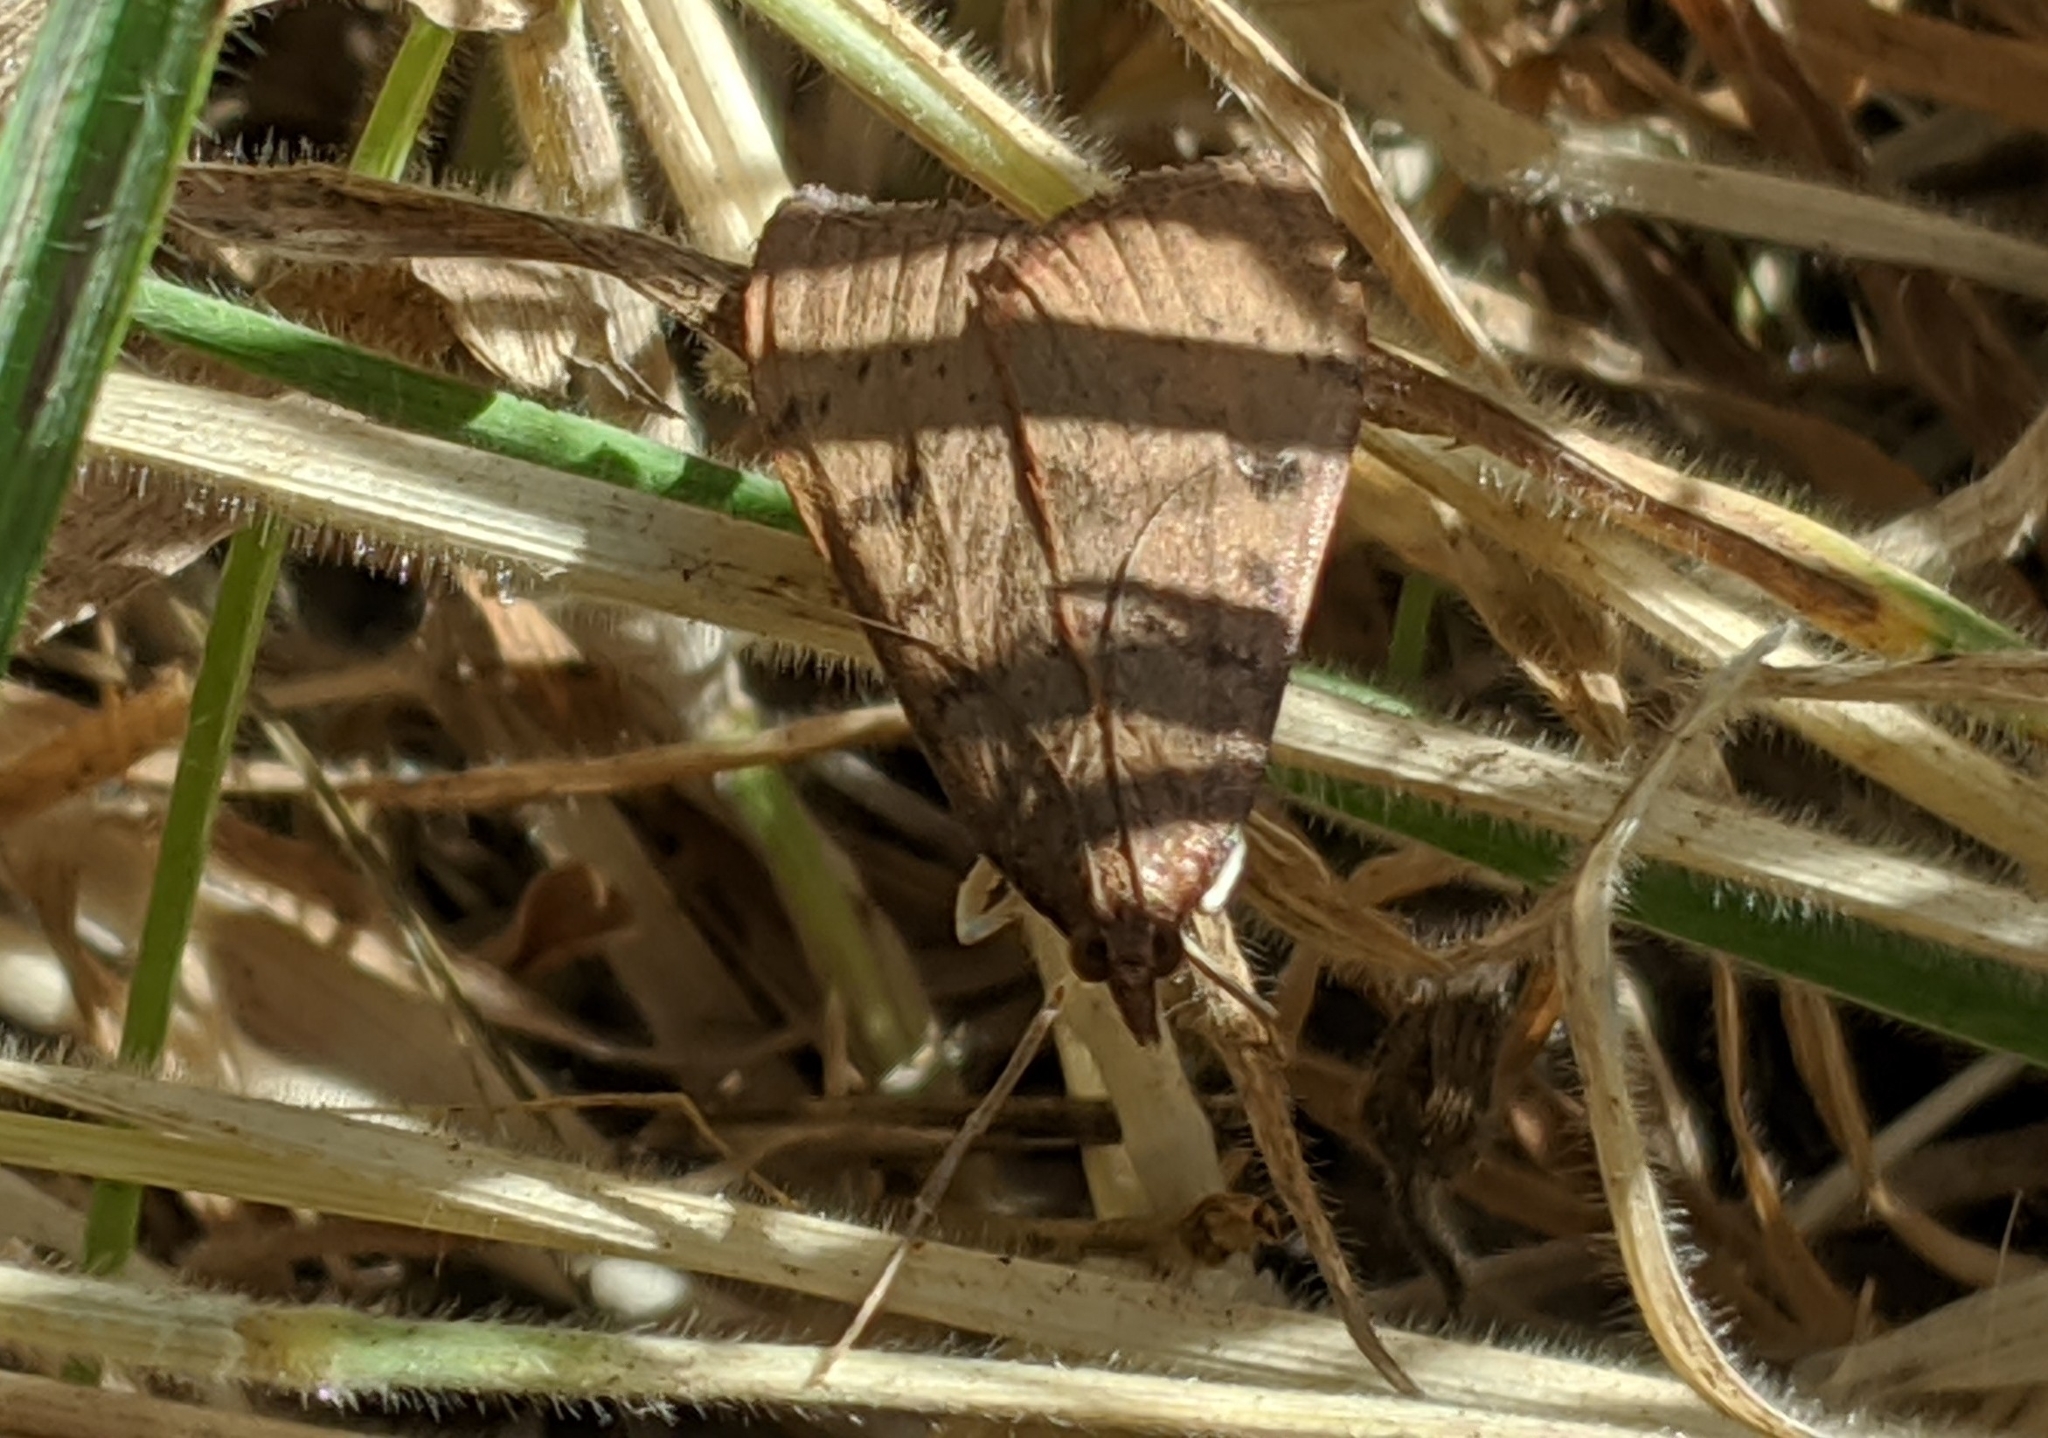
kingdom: Animalia
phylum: Arthropoda
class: Insecta
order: Lepidoptera
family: Crambidae
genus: Uresiphita
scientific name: Uresiphita reversalis
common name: Genista broom moth
